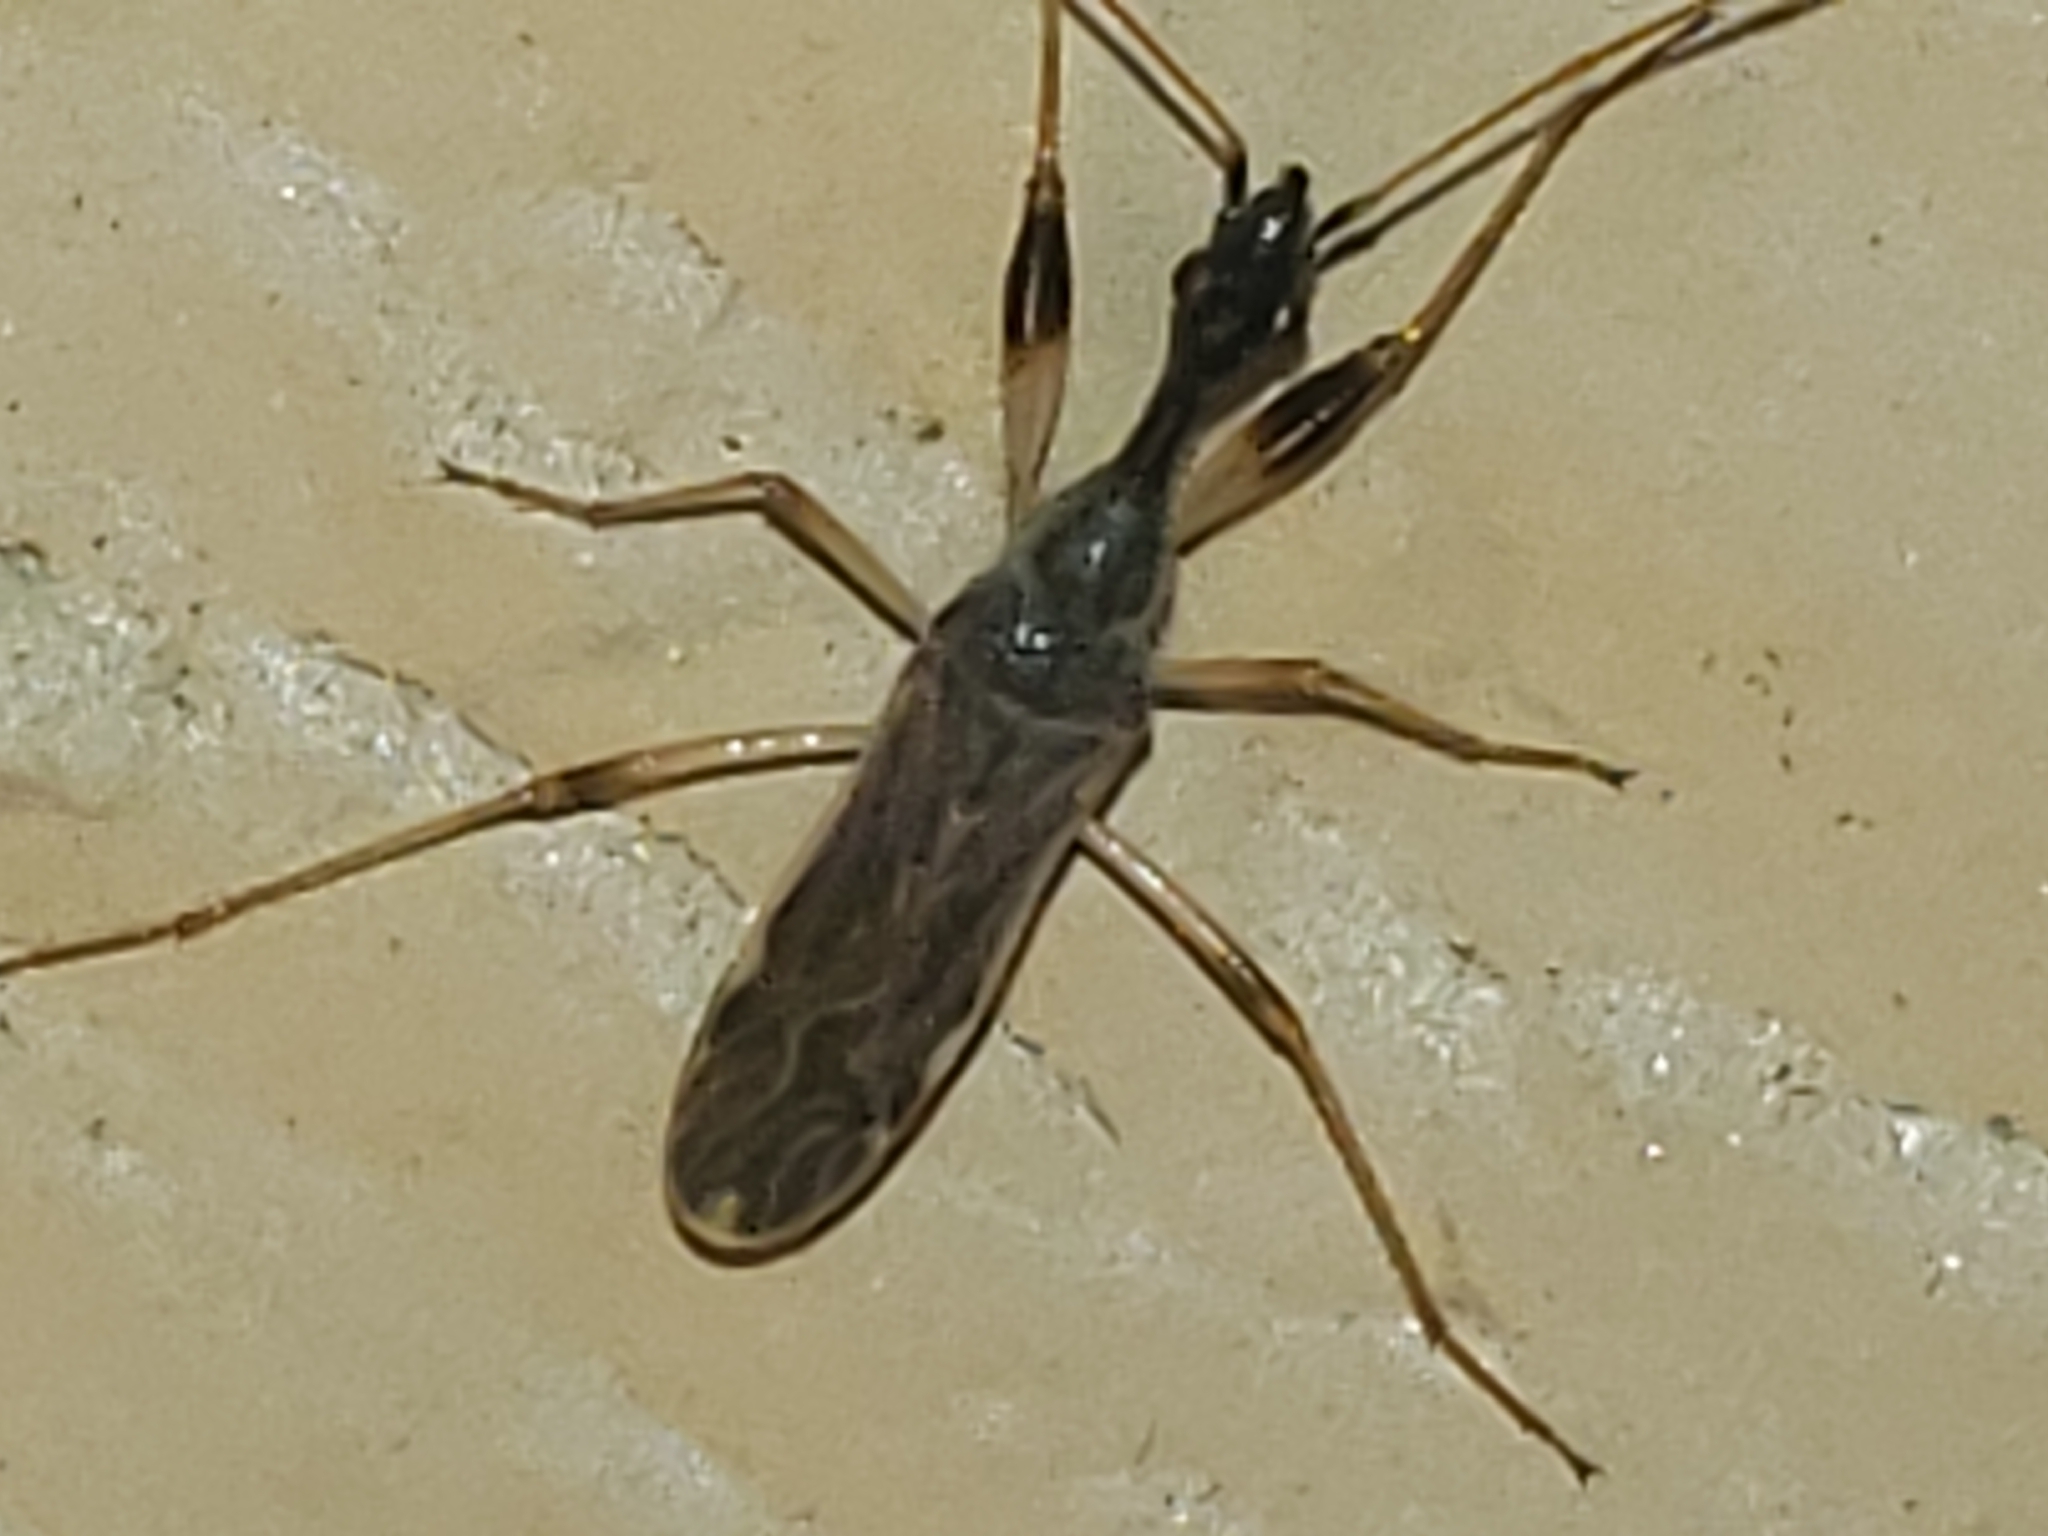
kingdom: Animalia
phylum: Arthropoda
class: Insecta
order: Hemiptera
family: Rhyparochromidae
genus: Myodocha
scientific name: Myodocha serripes
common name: Long-necked seed bug
